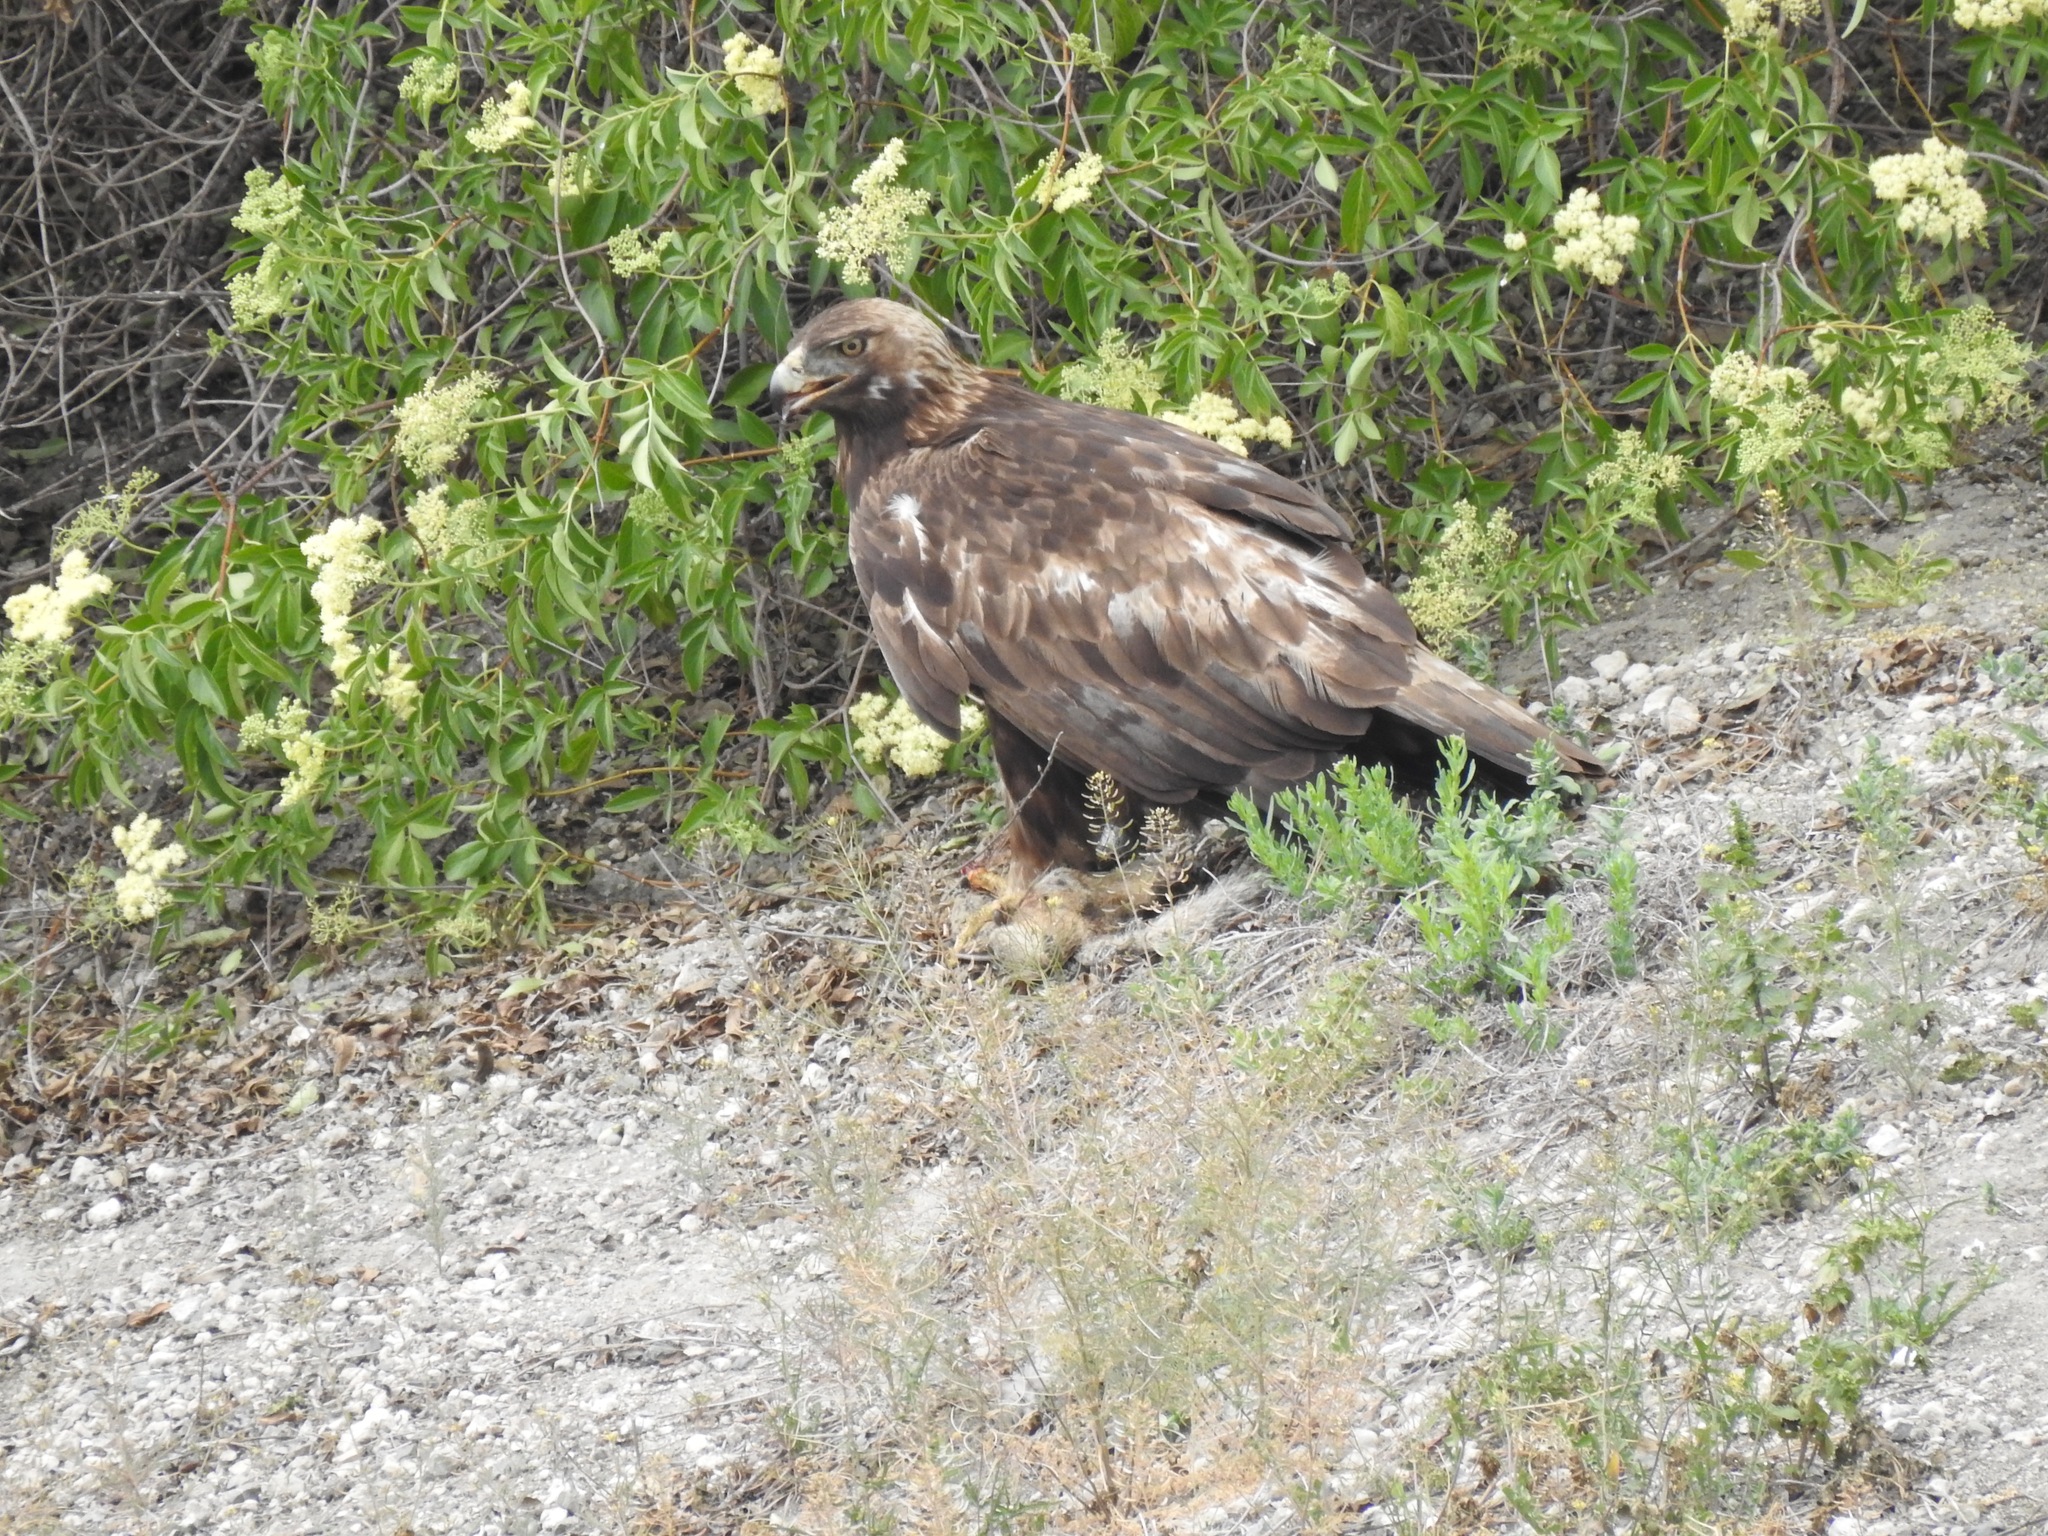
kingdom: Animalia
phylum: Chordata
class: Aves
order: Accipitriformes
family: Accipitridae
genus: Aquila
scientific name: Aquila chrysaetos
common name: Golden eagle
